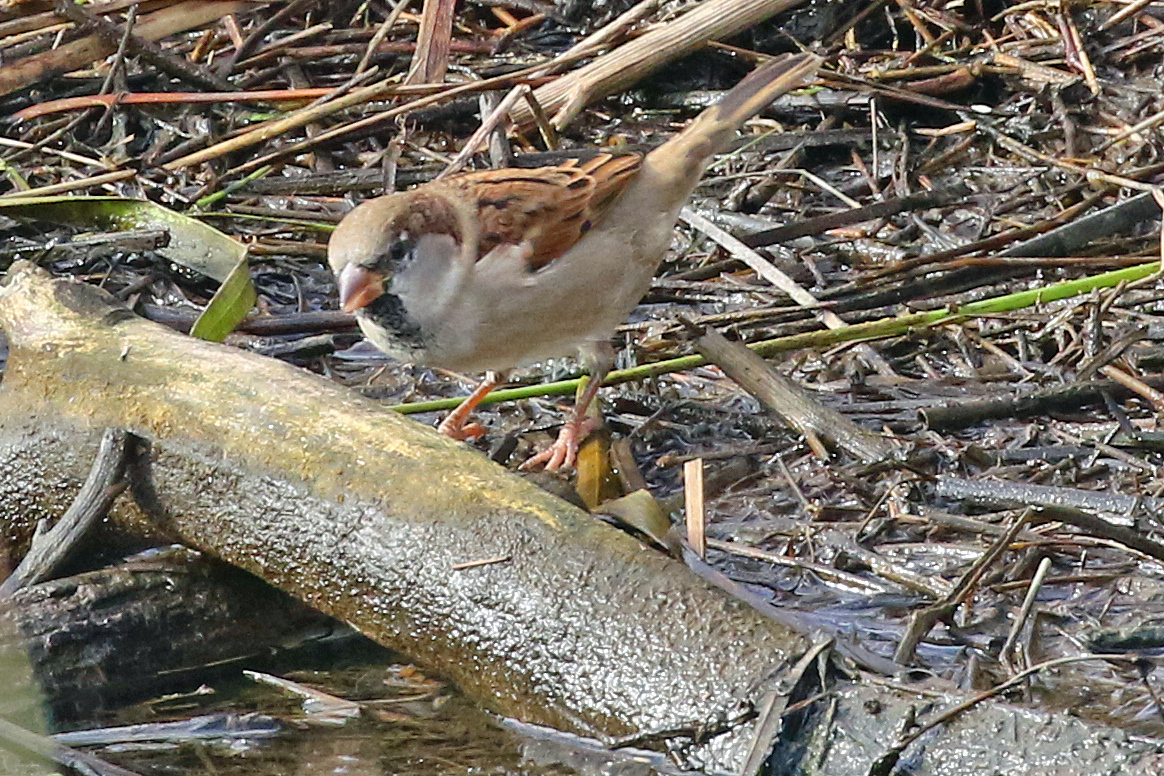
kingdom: Animalia
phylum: Chordata
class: Aves
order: Passeriformes
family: Passeridae
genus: Passer
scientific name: Passer domesticus
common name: House sparrow
